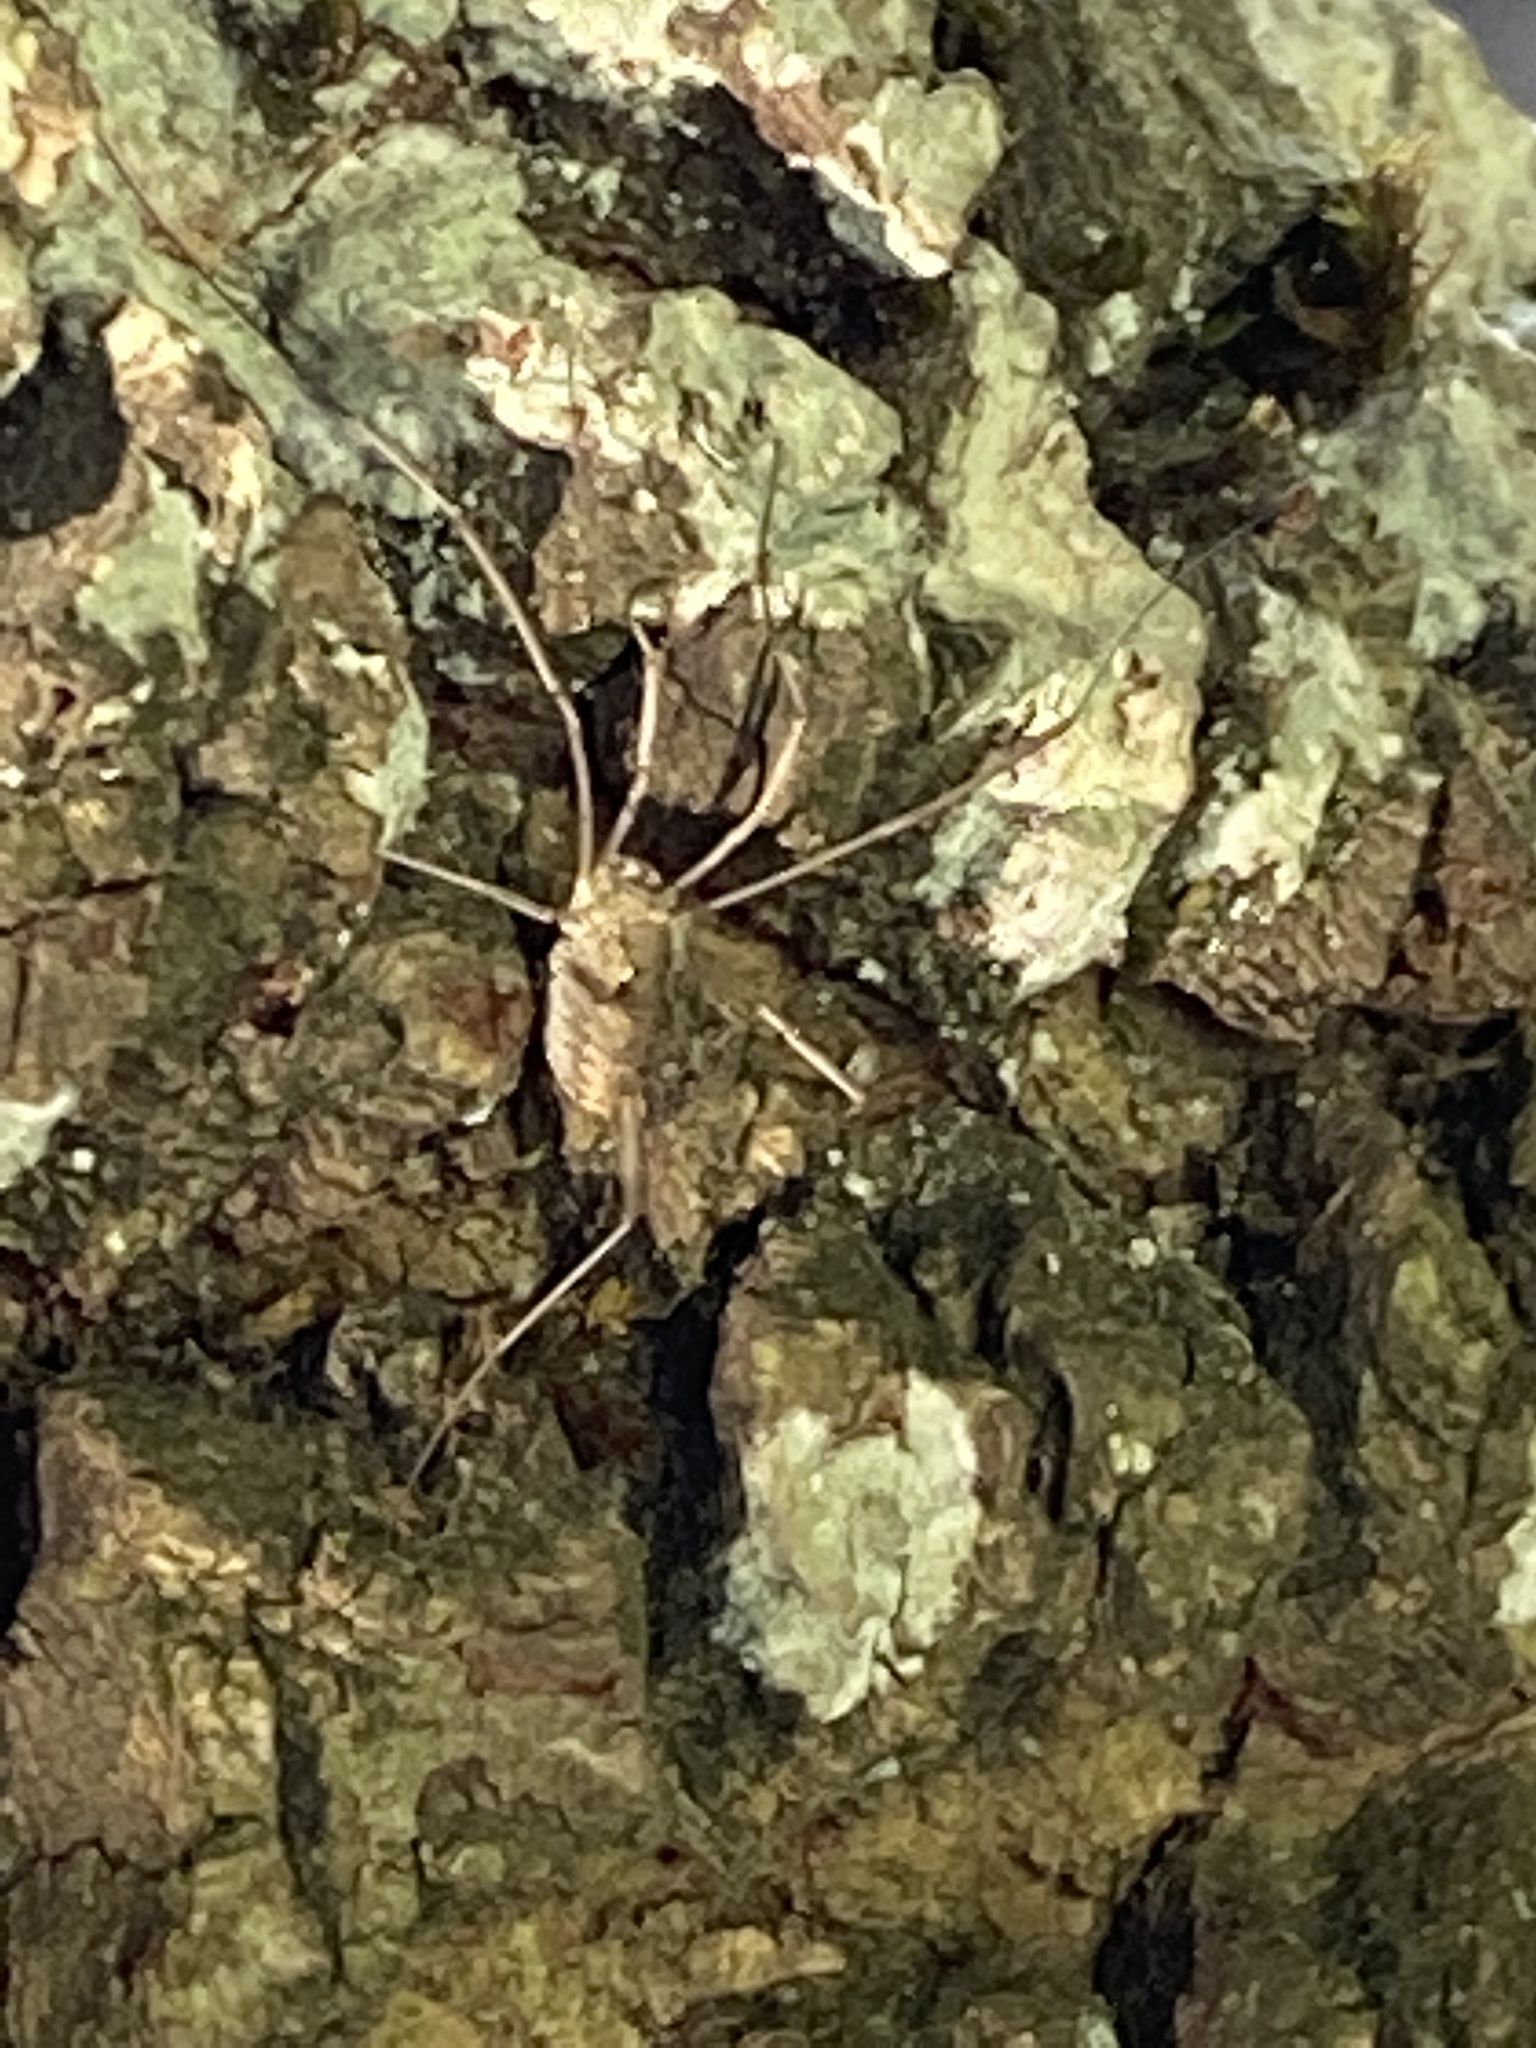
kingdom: Animalia
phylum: Arthropoda
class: Arachnida
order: Opiliones
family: Phalangiidae
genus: Phalangium
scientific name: Phalangium opilio
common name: Daddy longleg
